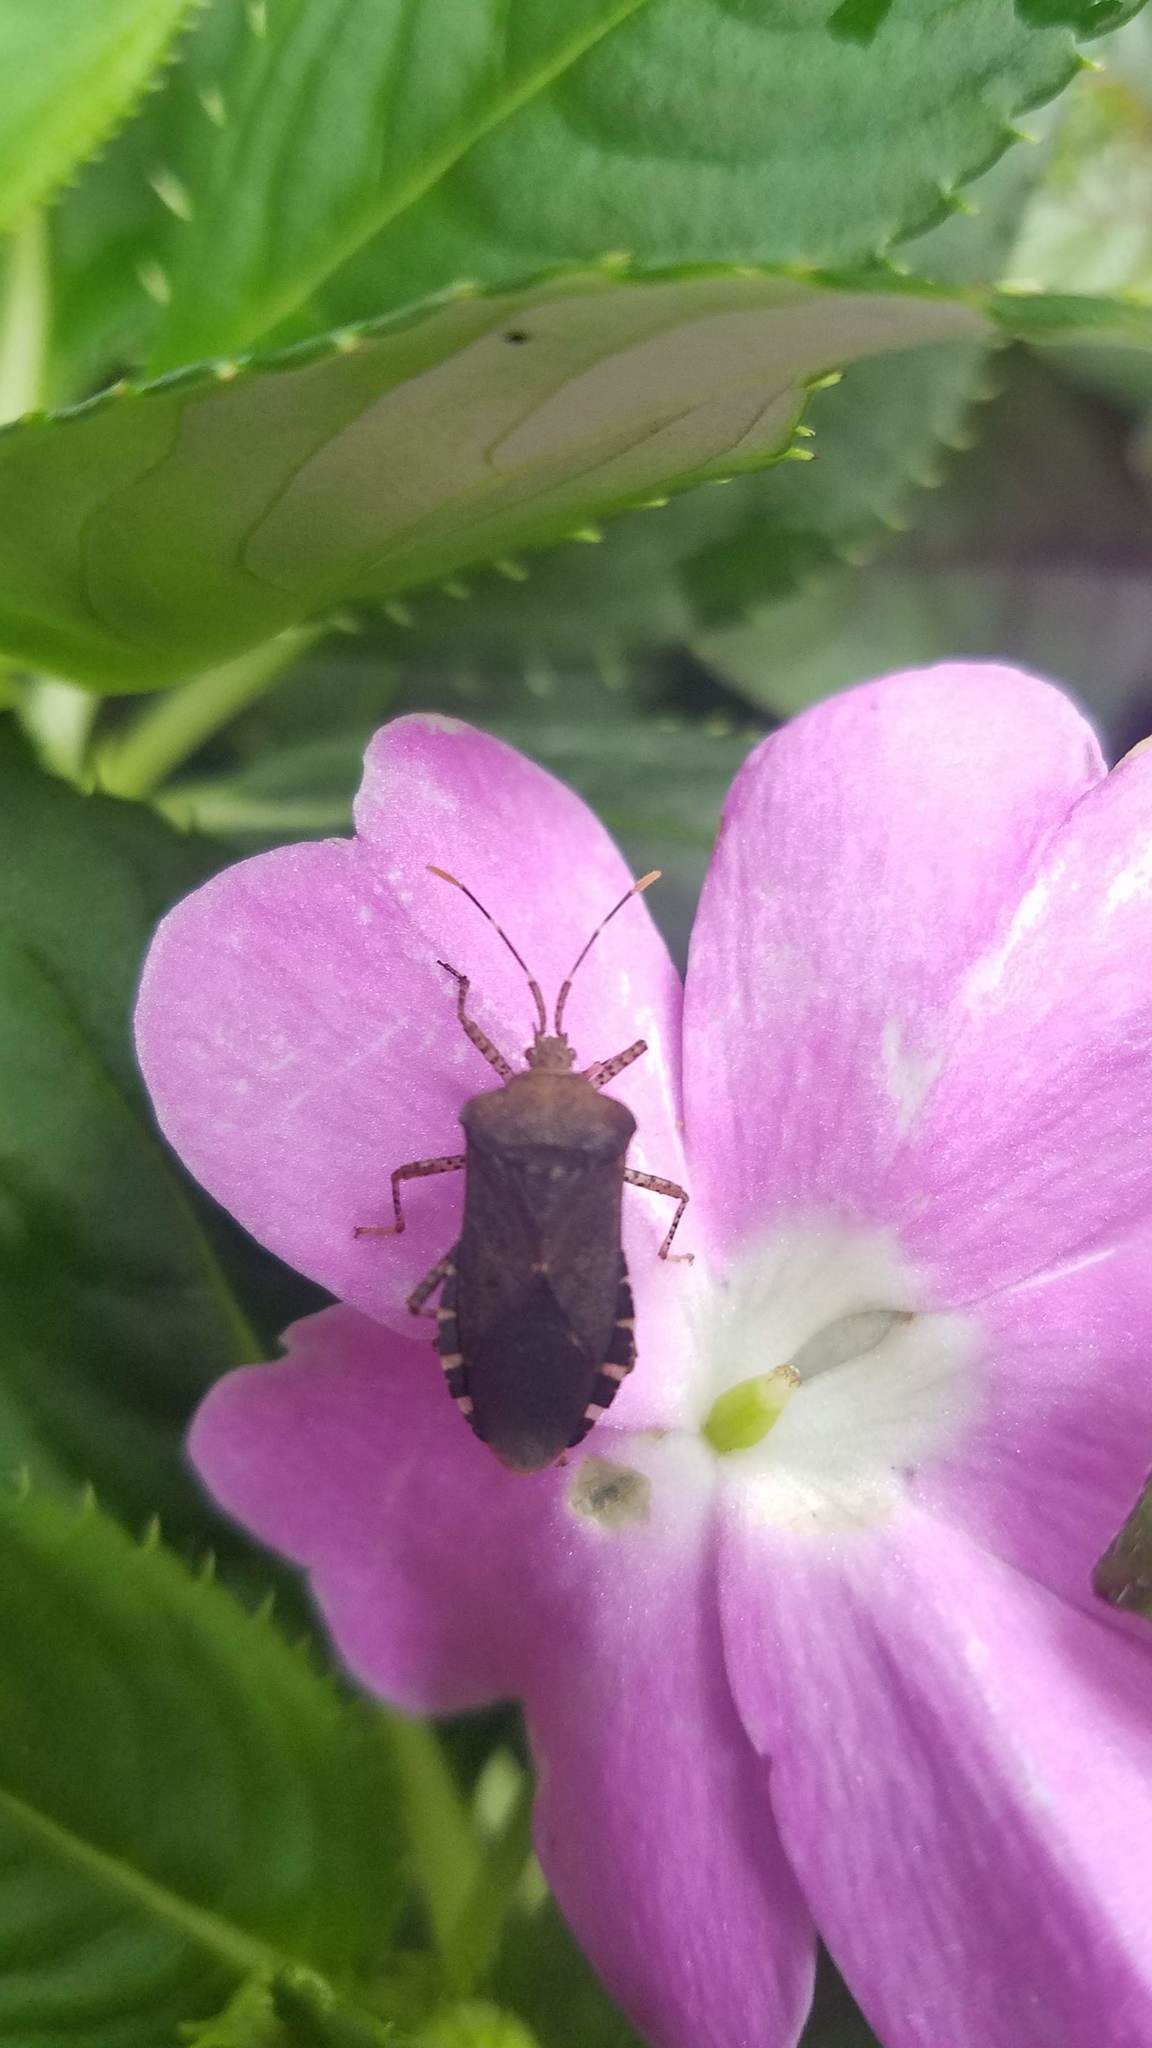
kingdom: Animalia
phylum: Arthropoda
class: Insecta
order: Hemiptera
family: Coreidae
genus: Anasa
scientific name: Anasa armigera
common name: Horned squash bug
